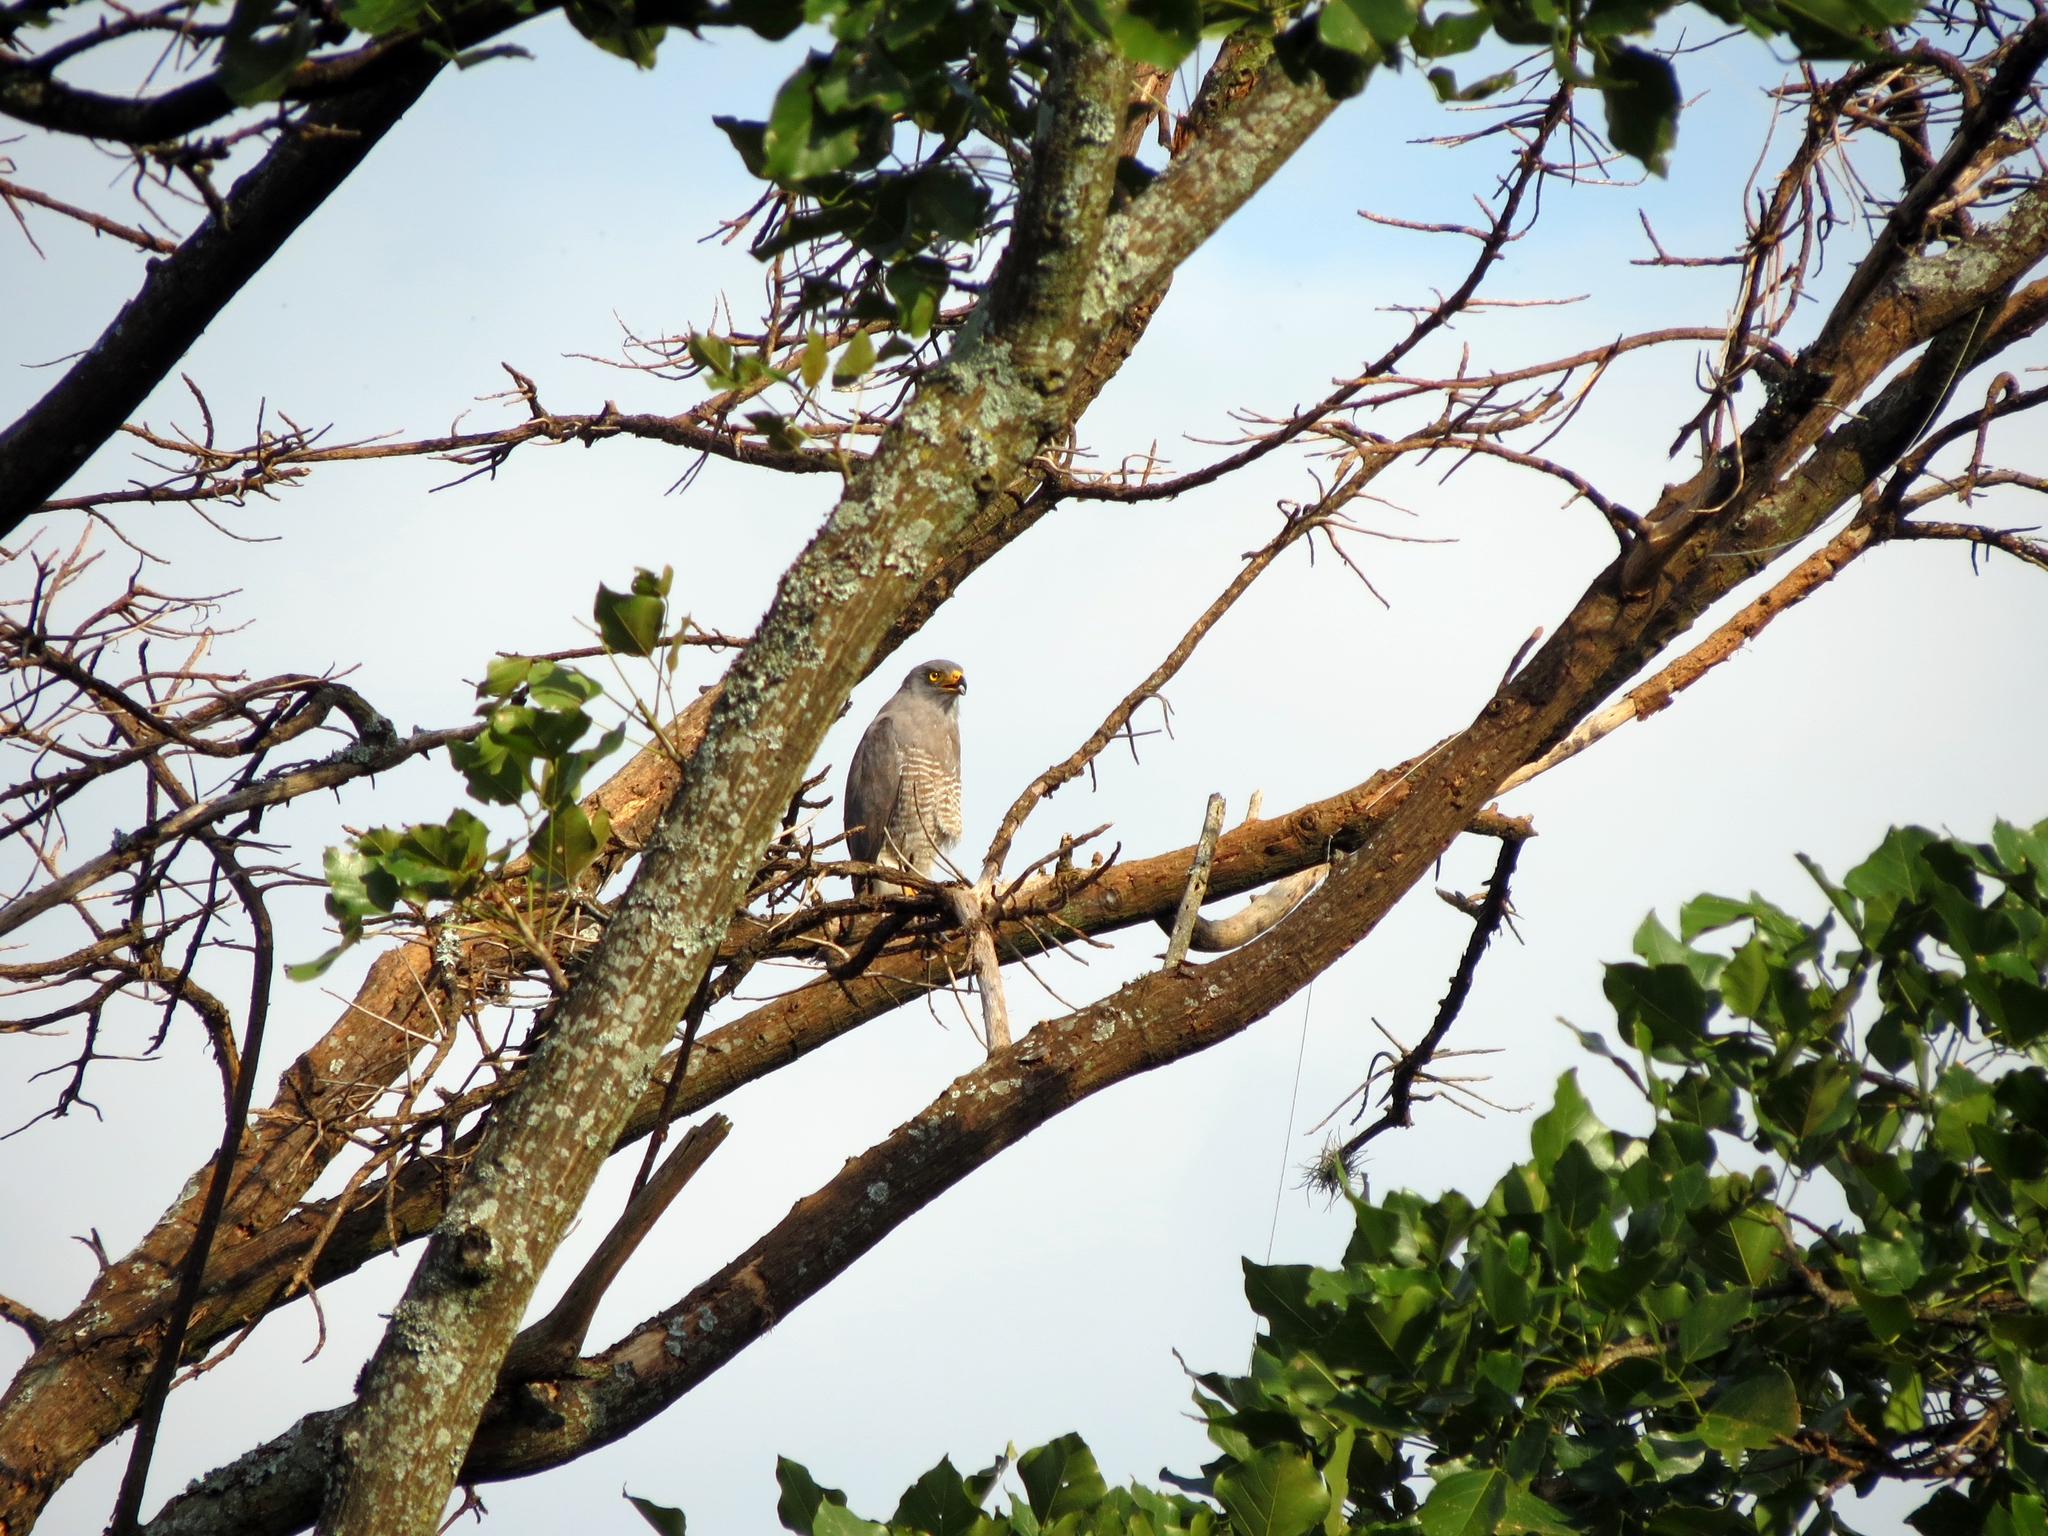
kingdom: Animalia
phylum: Chordata
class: Aves
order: Accipitriformes
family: Accipitridae
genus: Rupornis
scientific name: Rupornis magnirostris
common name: Roadside hawk
